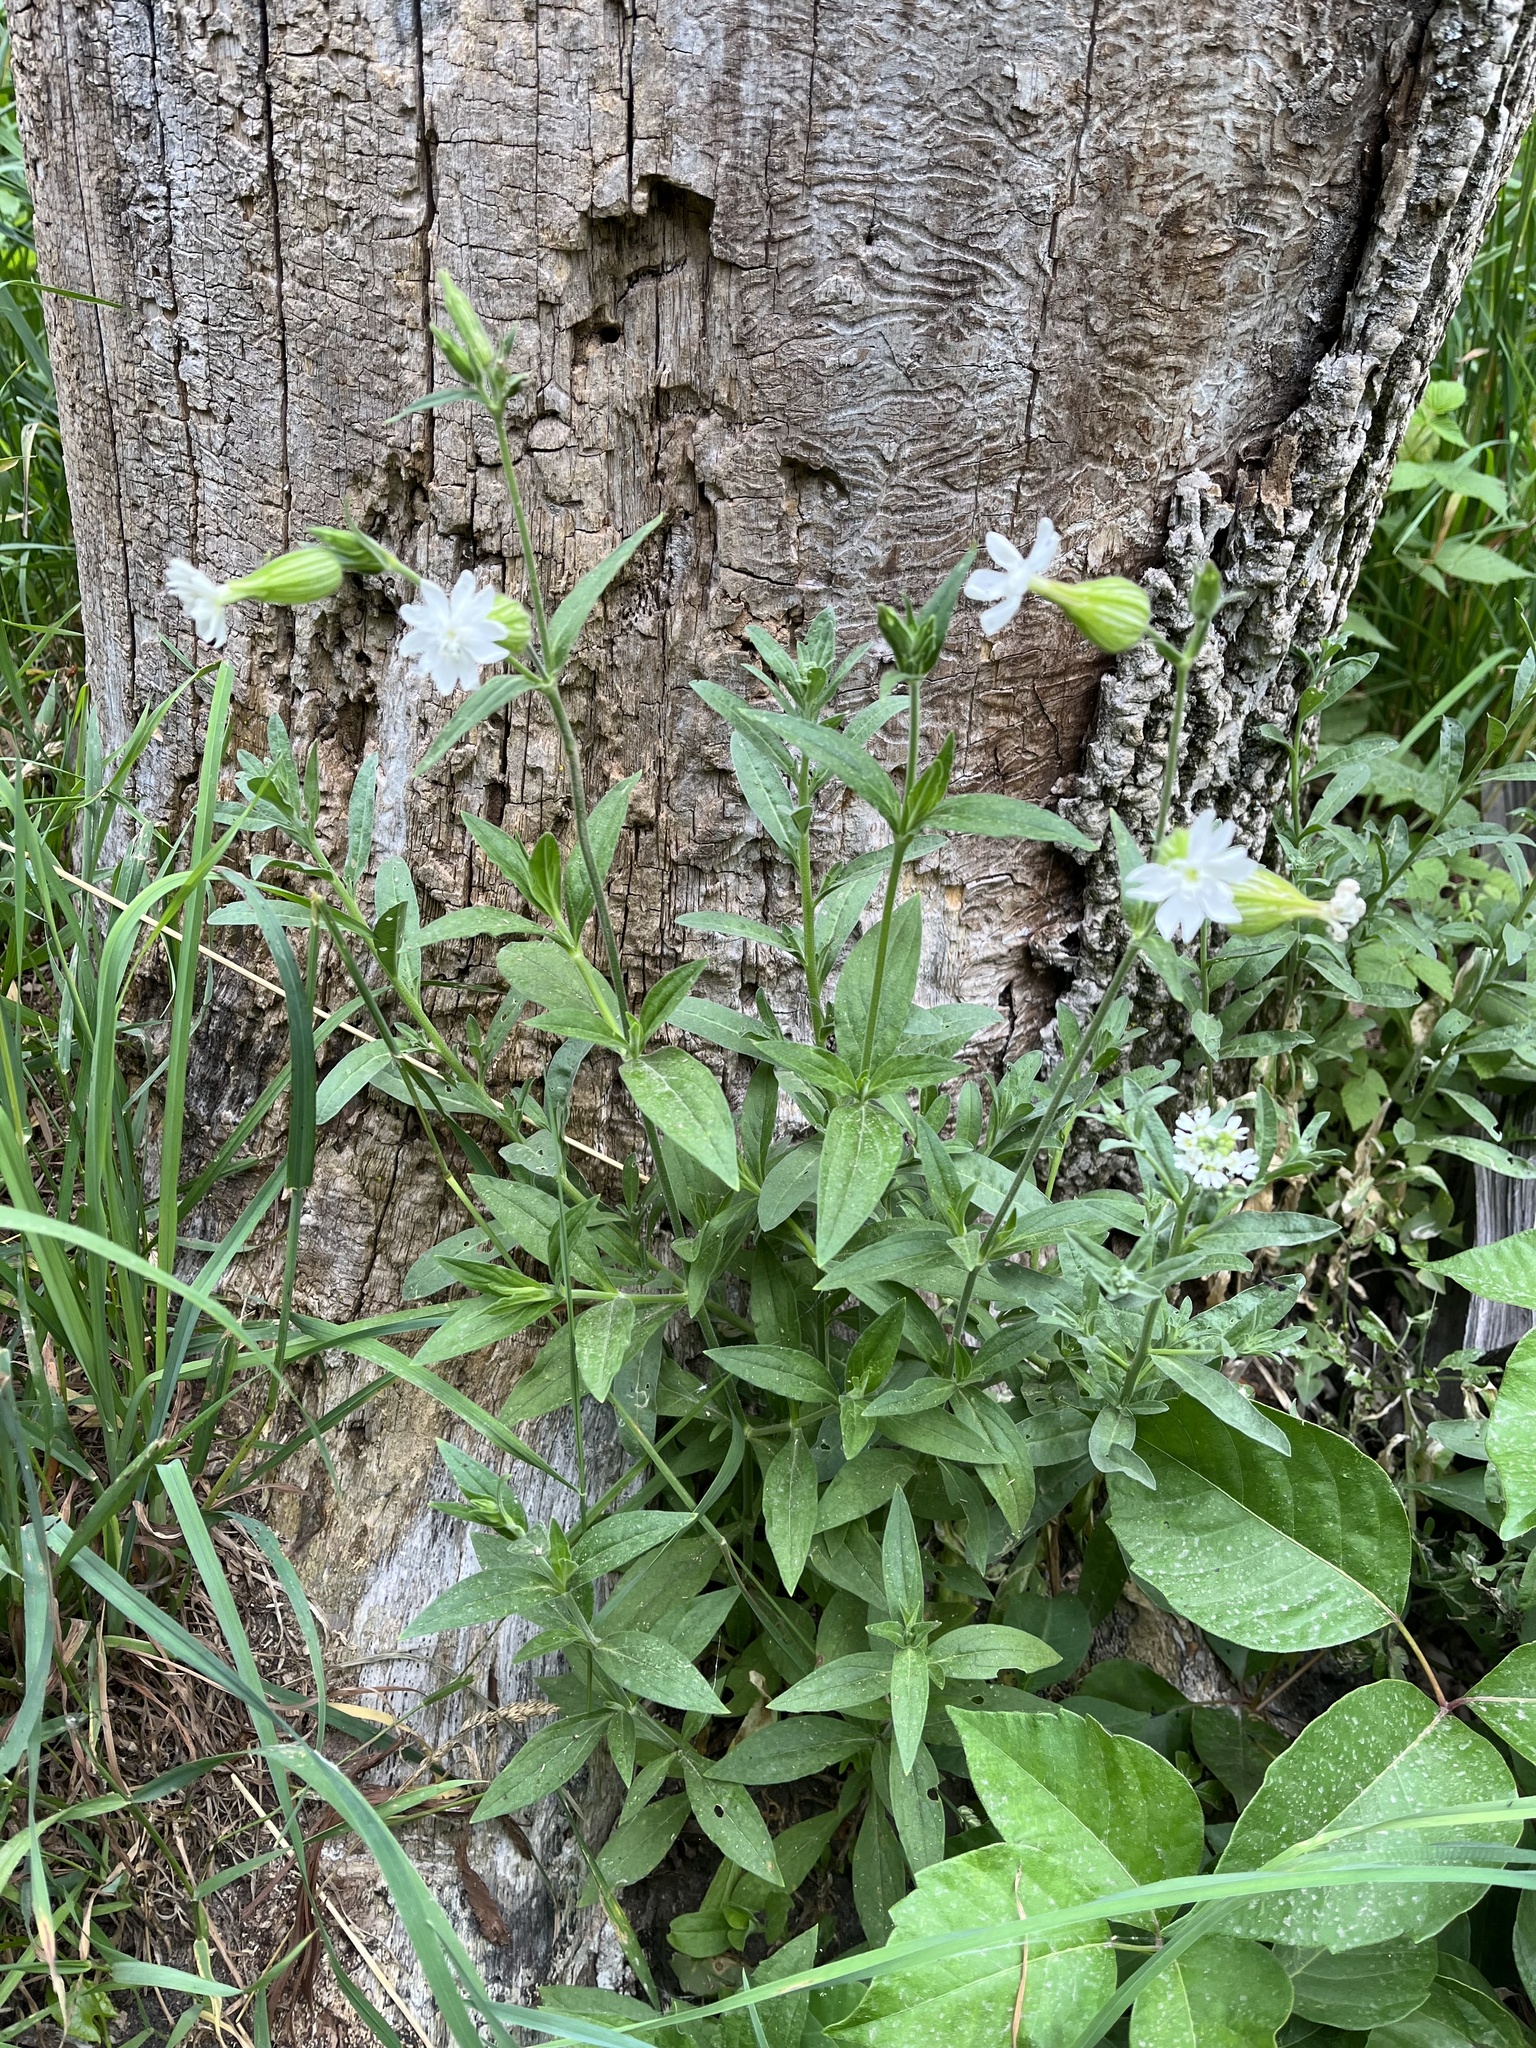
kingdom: Plantae
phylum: Tracheophyta
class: Magnoliopsida
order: Caryophyllales
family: Caryophyllaceae
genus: Silene
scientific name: Silene latifolia
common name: White campion
